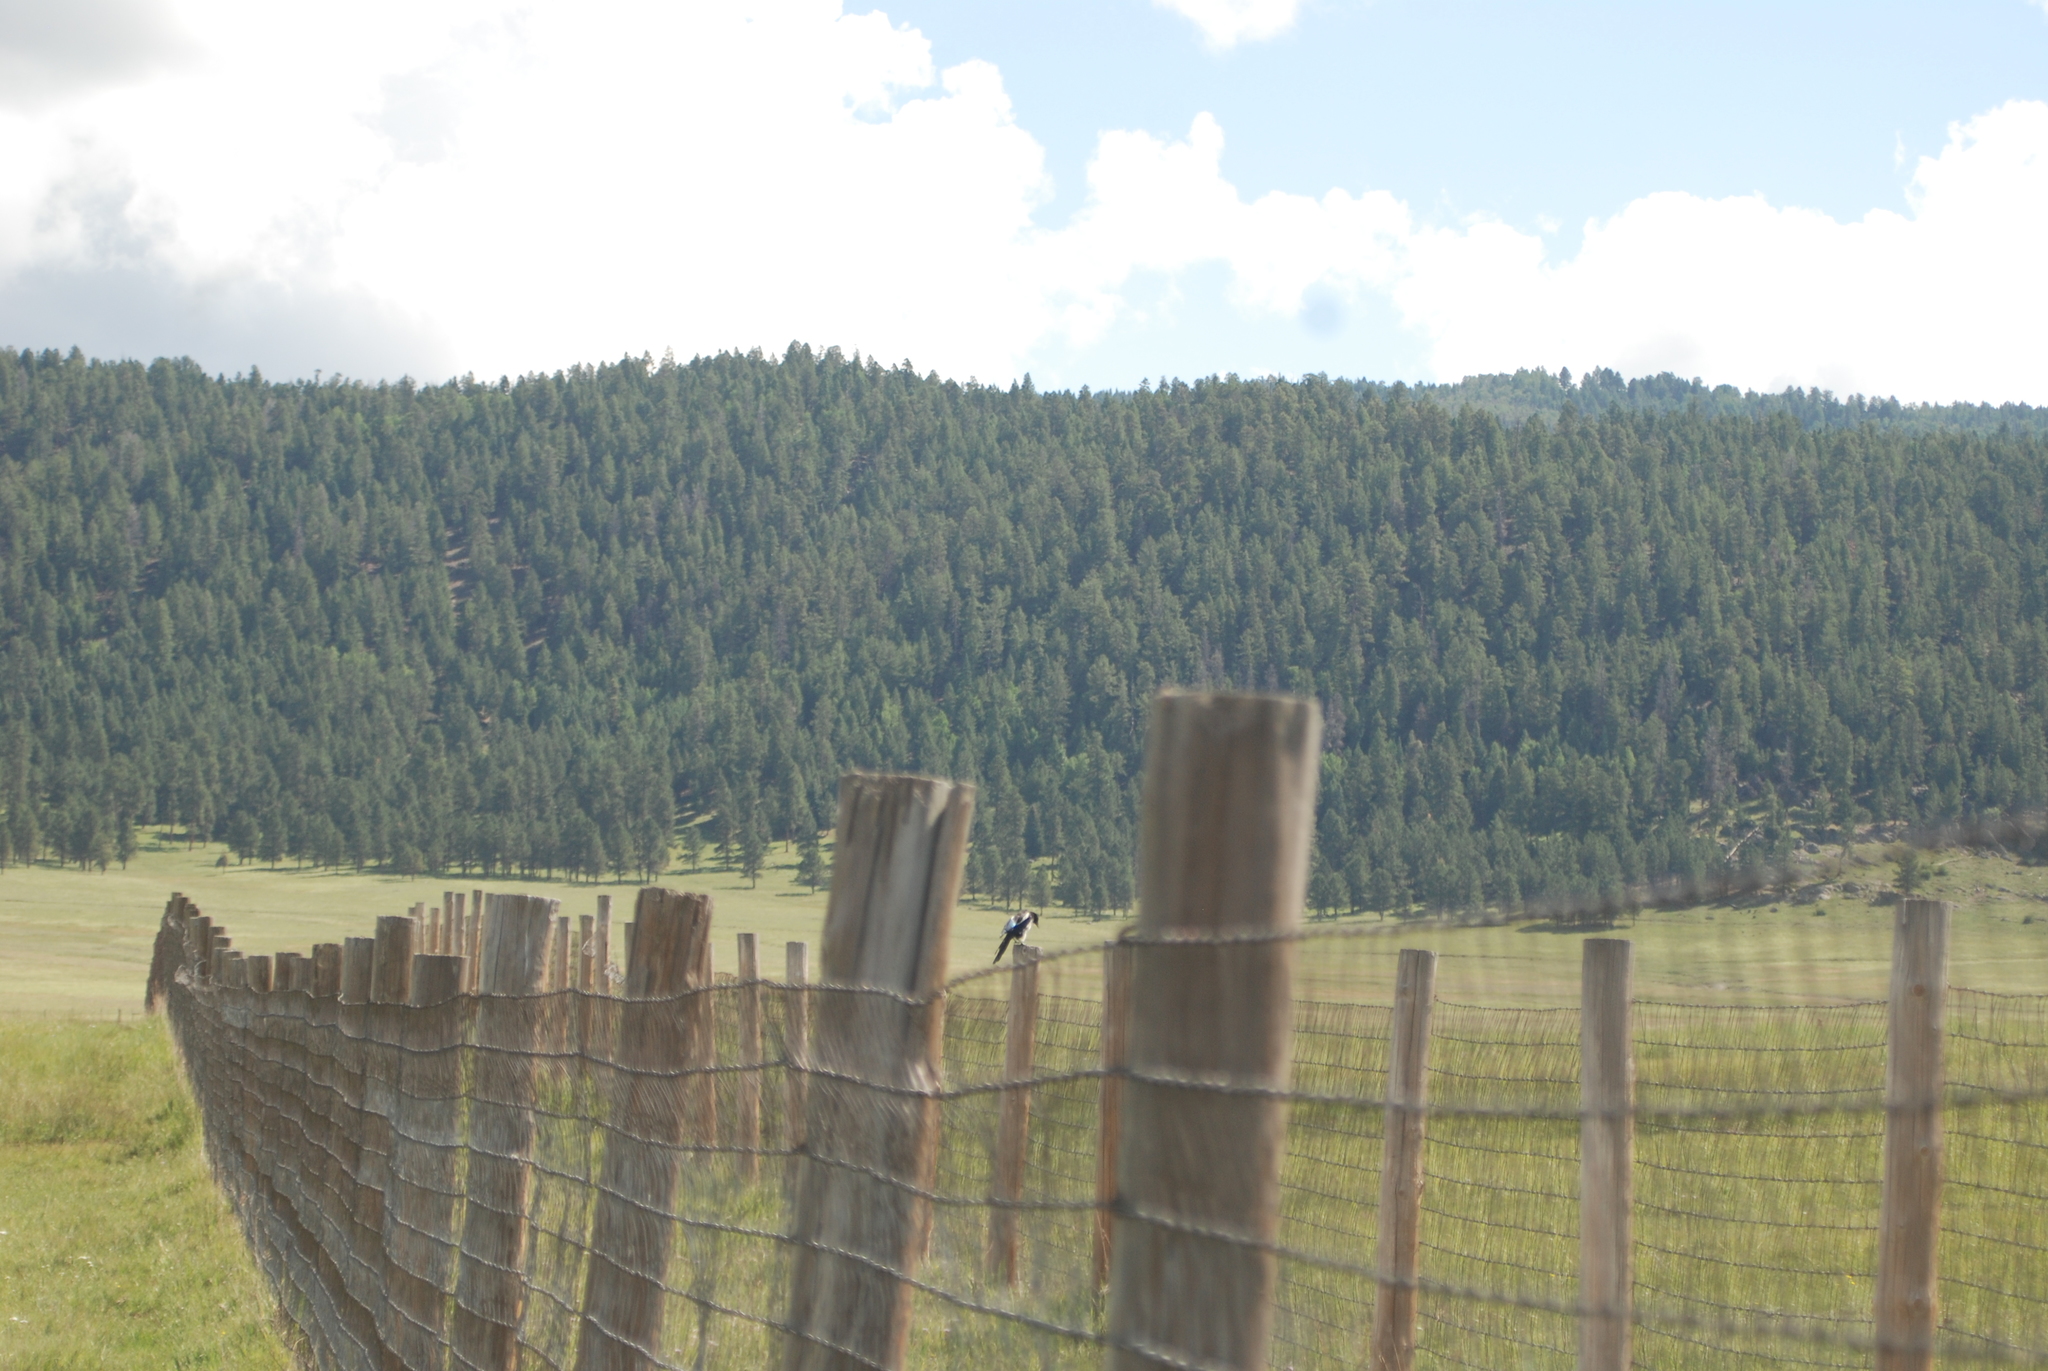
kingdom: Animalia
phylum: Chordata
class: Aves
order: Passeriformes
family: Corvidae
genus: Pica
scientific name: Pica hudsonia
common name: Black-billed magpie
